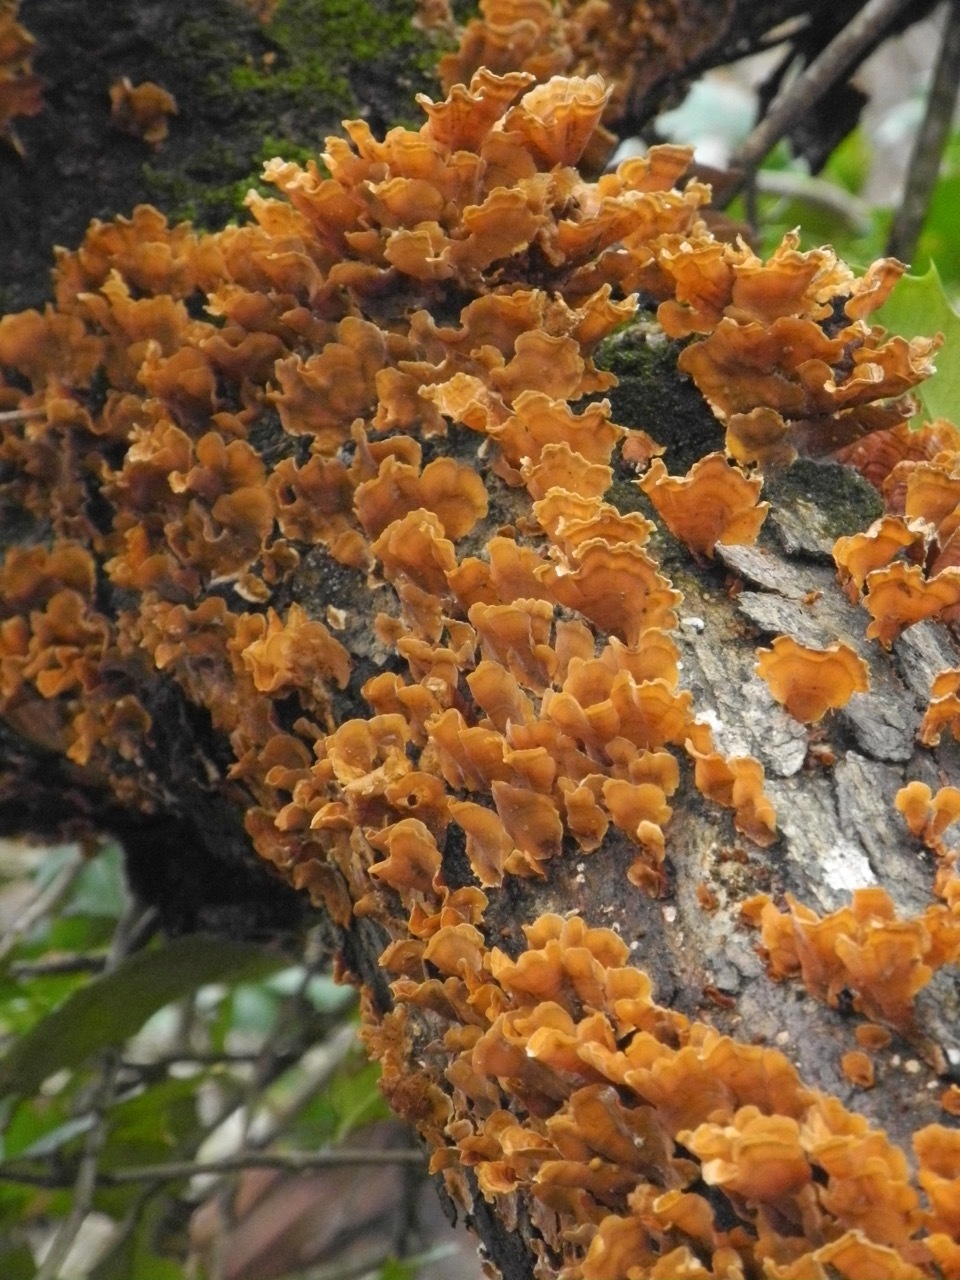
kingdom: Fungi
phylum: Basidiomycota
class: Agaricomycetes
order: Russulales
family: Stereaceae
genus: Stereum
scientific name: Stereum complicatum
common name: Crowded parchment
